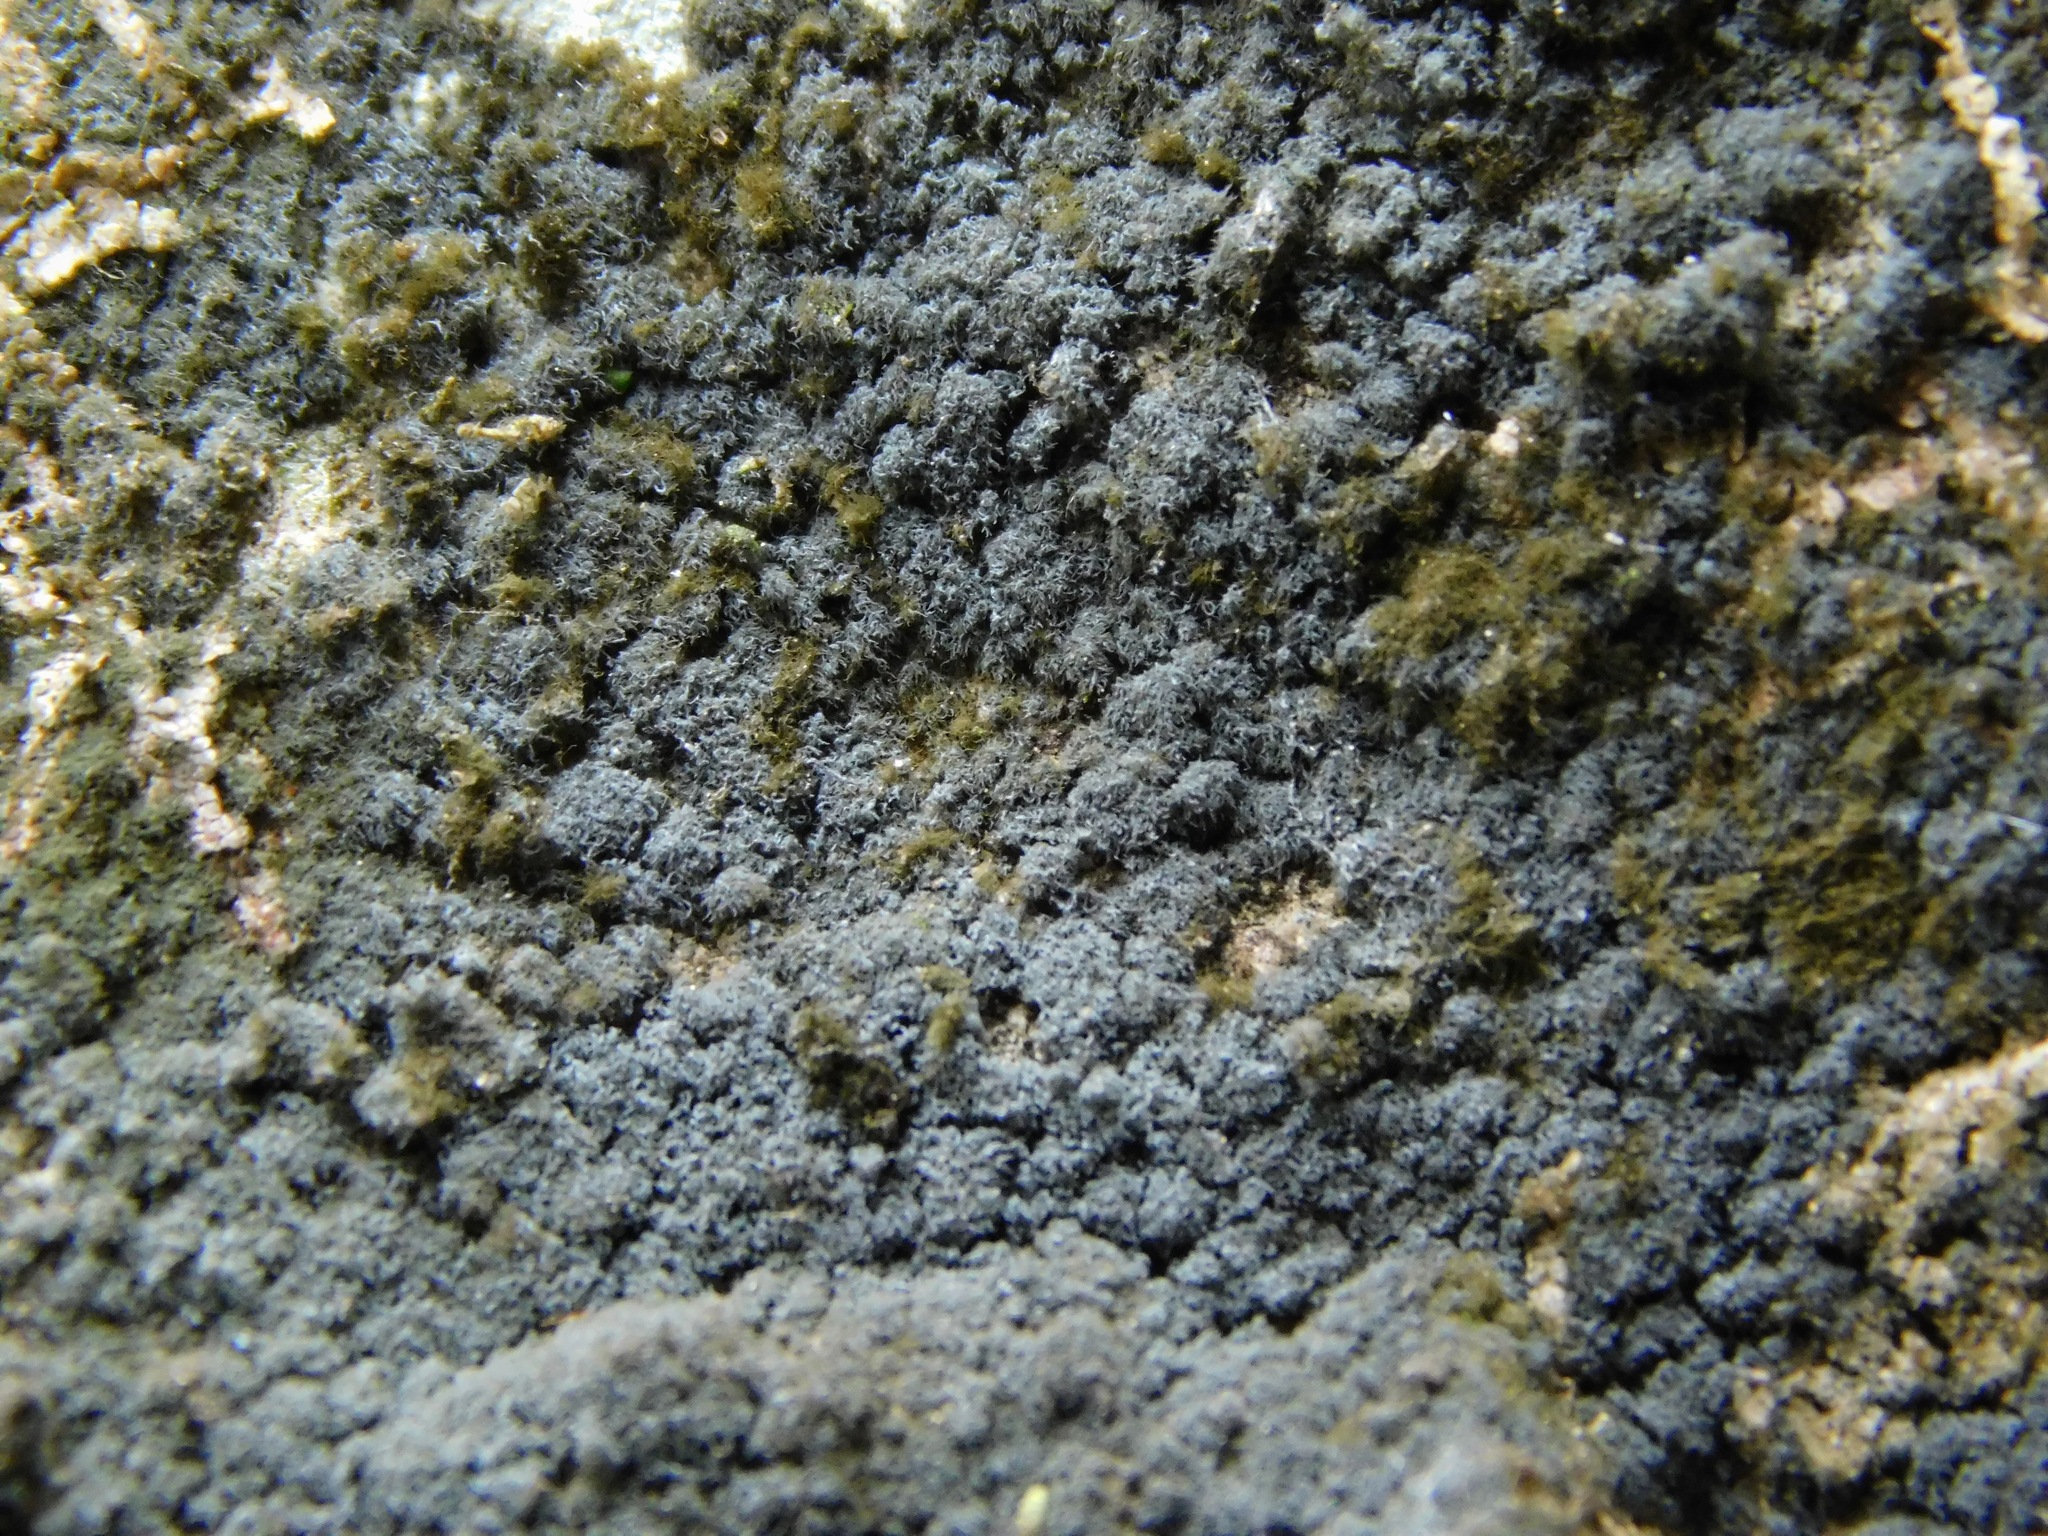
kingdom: Plantae
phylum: Chlorophyta
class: Ulvophyceae
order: Trentepohliales
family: Trentepohliaceae
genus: Trentepohlia
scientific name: Trentepohlia aurea
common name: Orange rock hair
